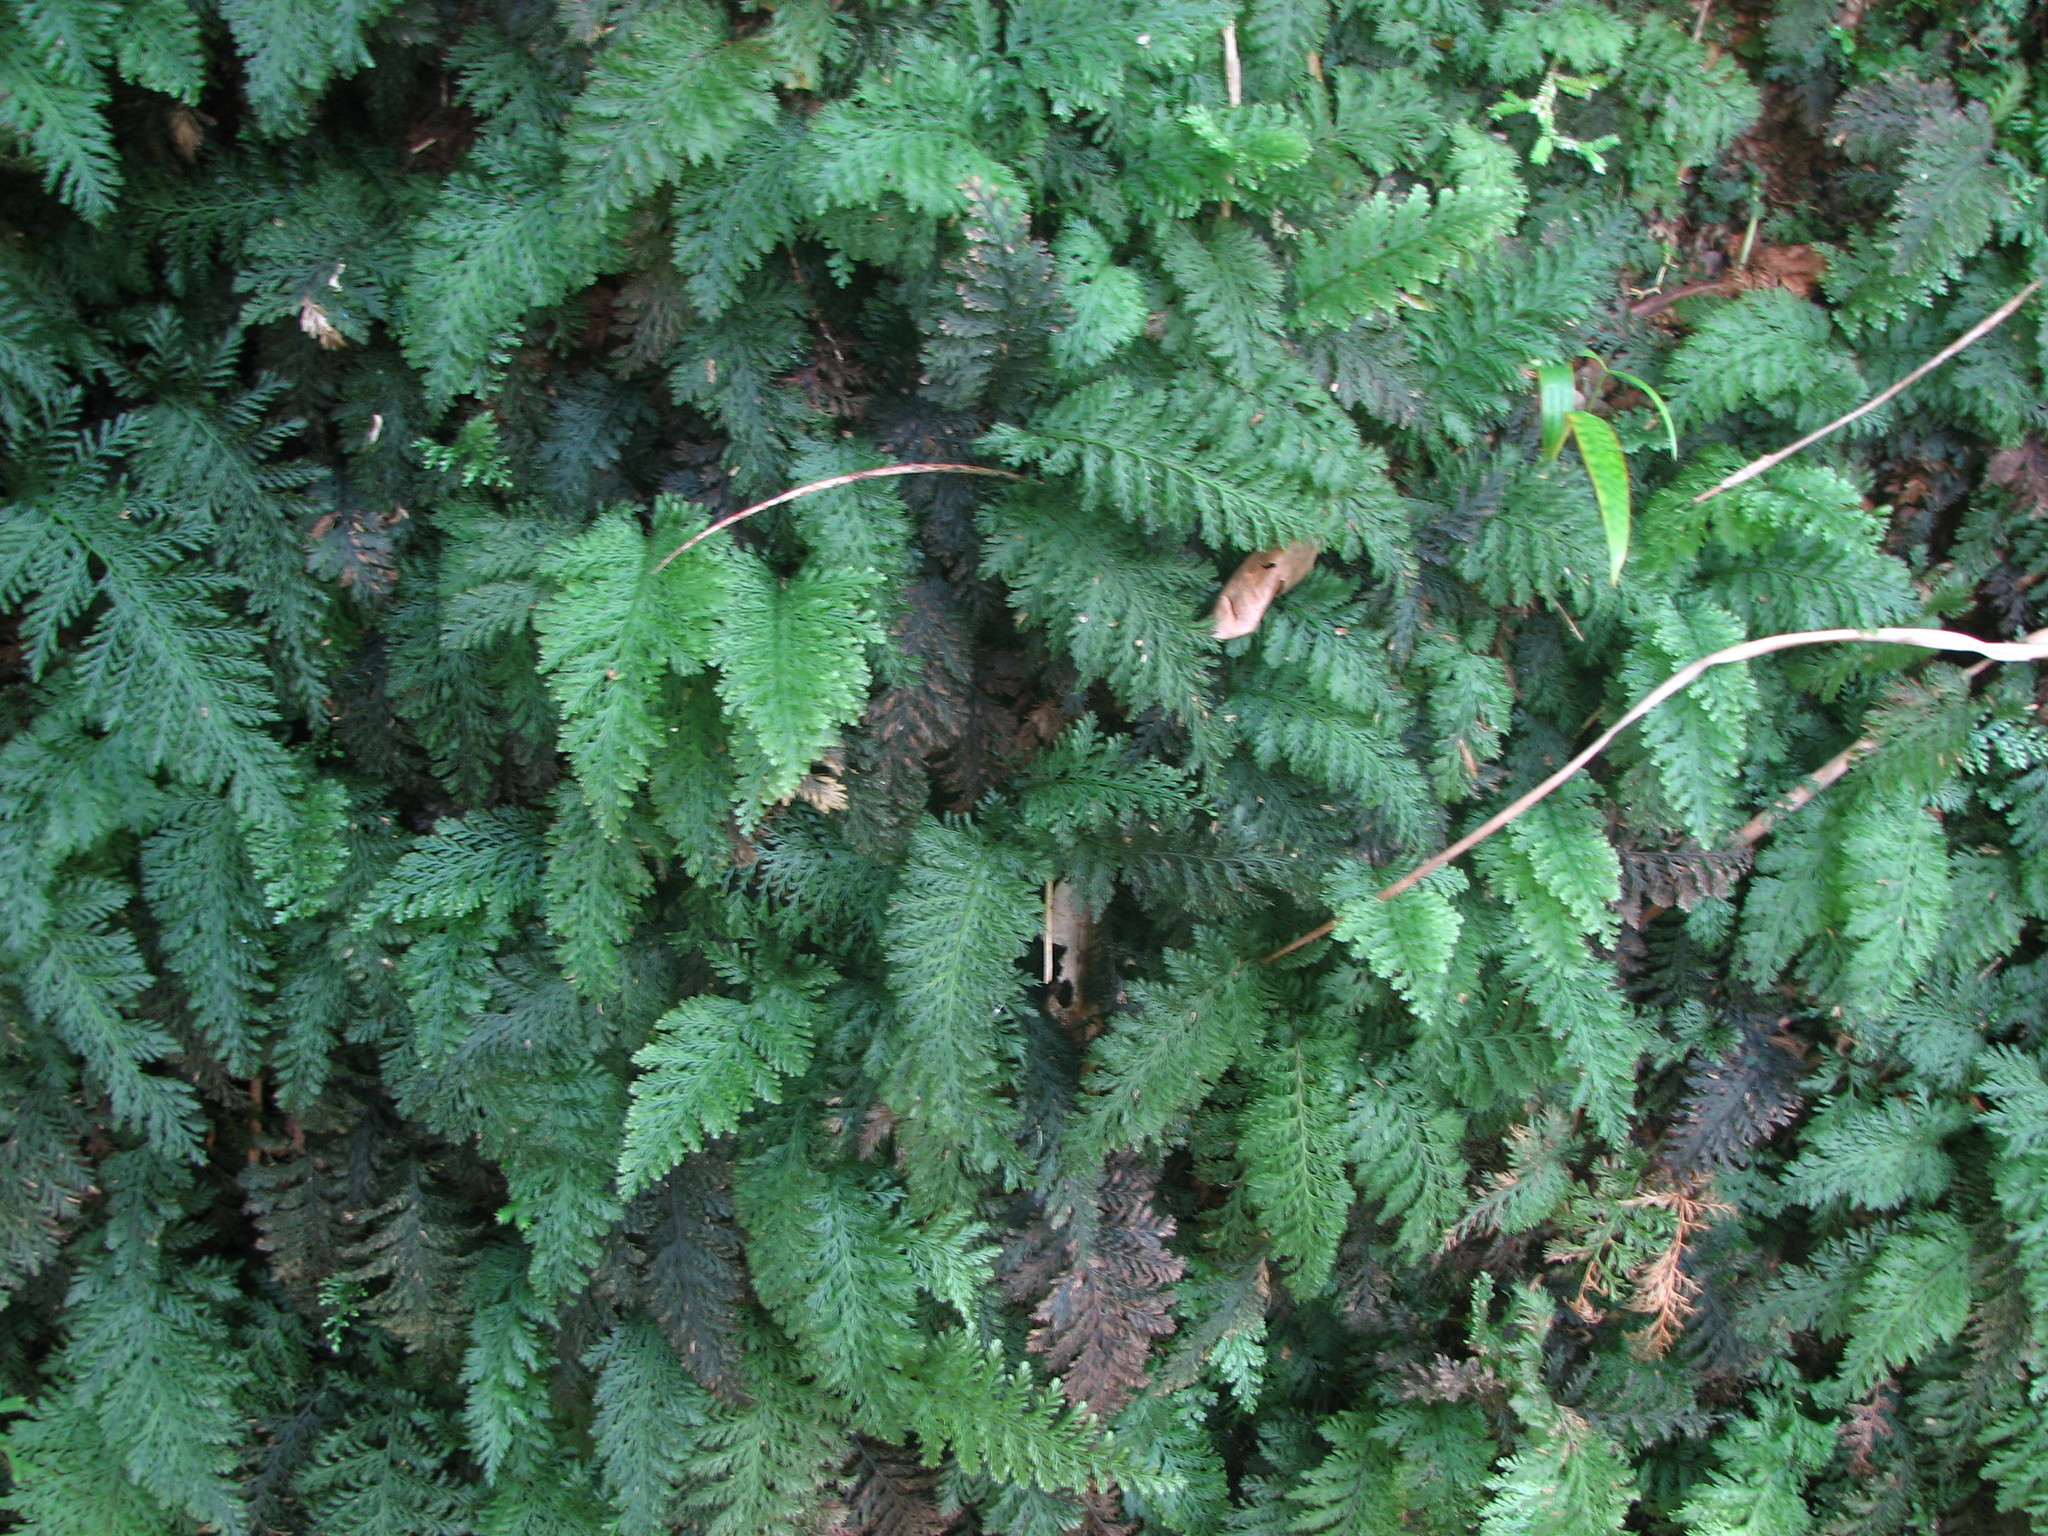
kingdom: Plantae
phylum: Tracheophyta
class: Polypodiopsida
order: Hymenophyllales
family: Hymenophyllaceae
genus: Trichomanes
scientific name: Trichomanes cupressoides
